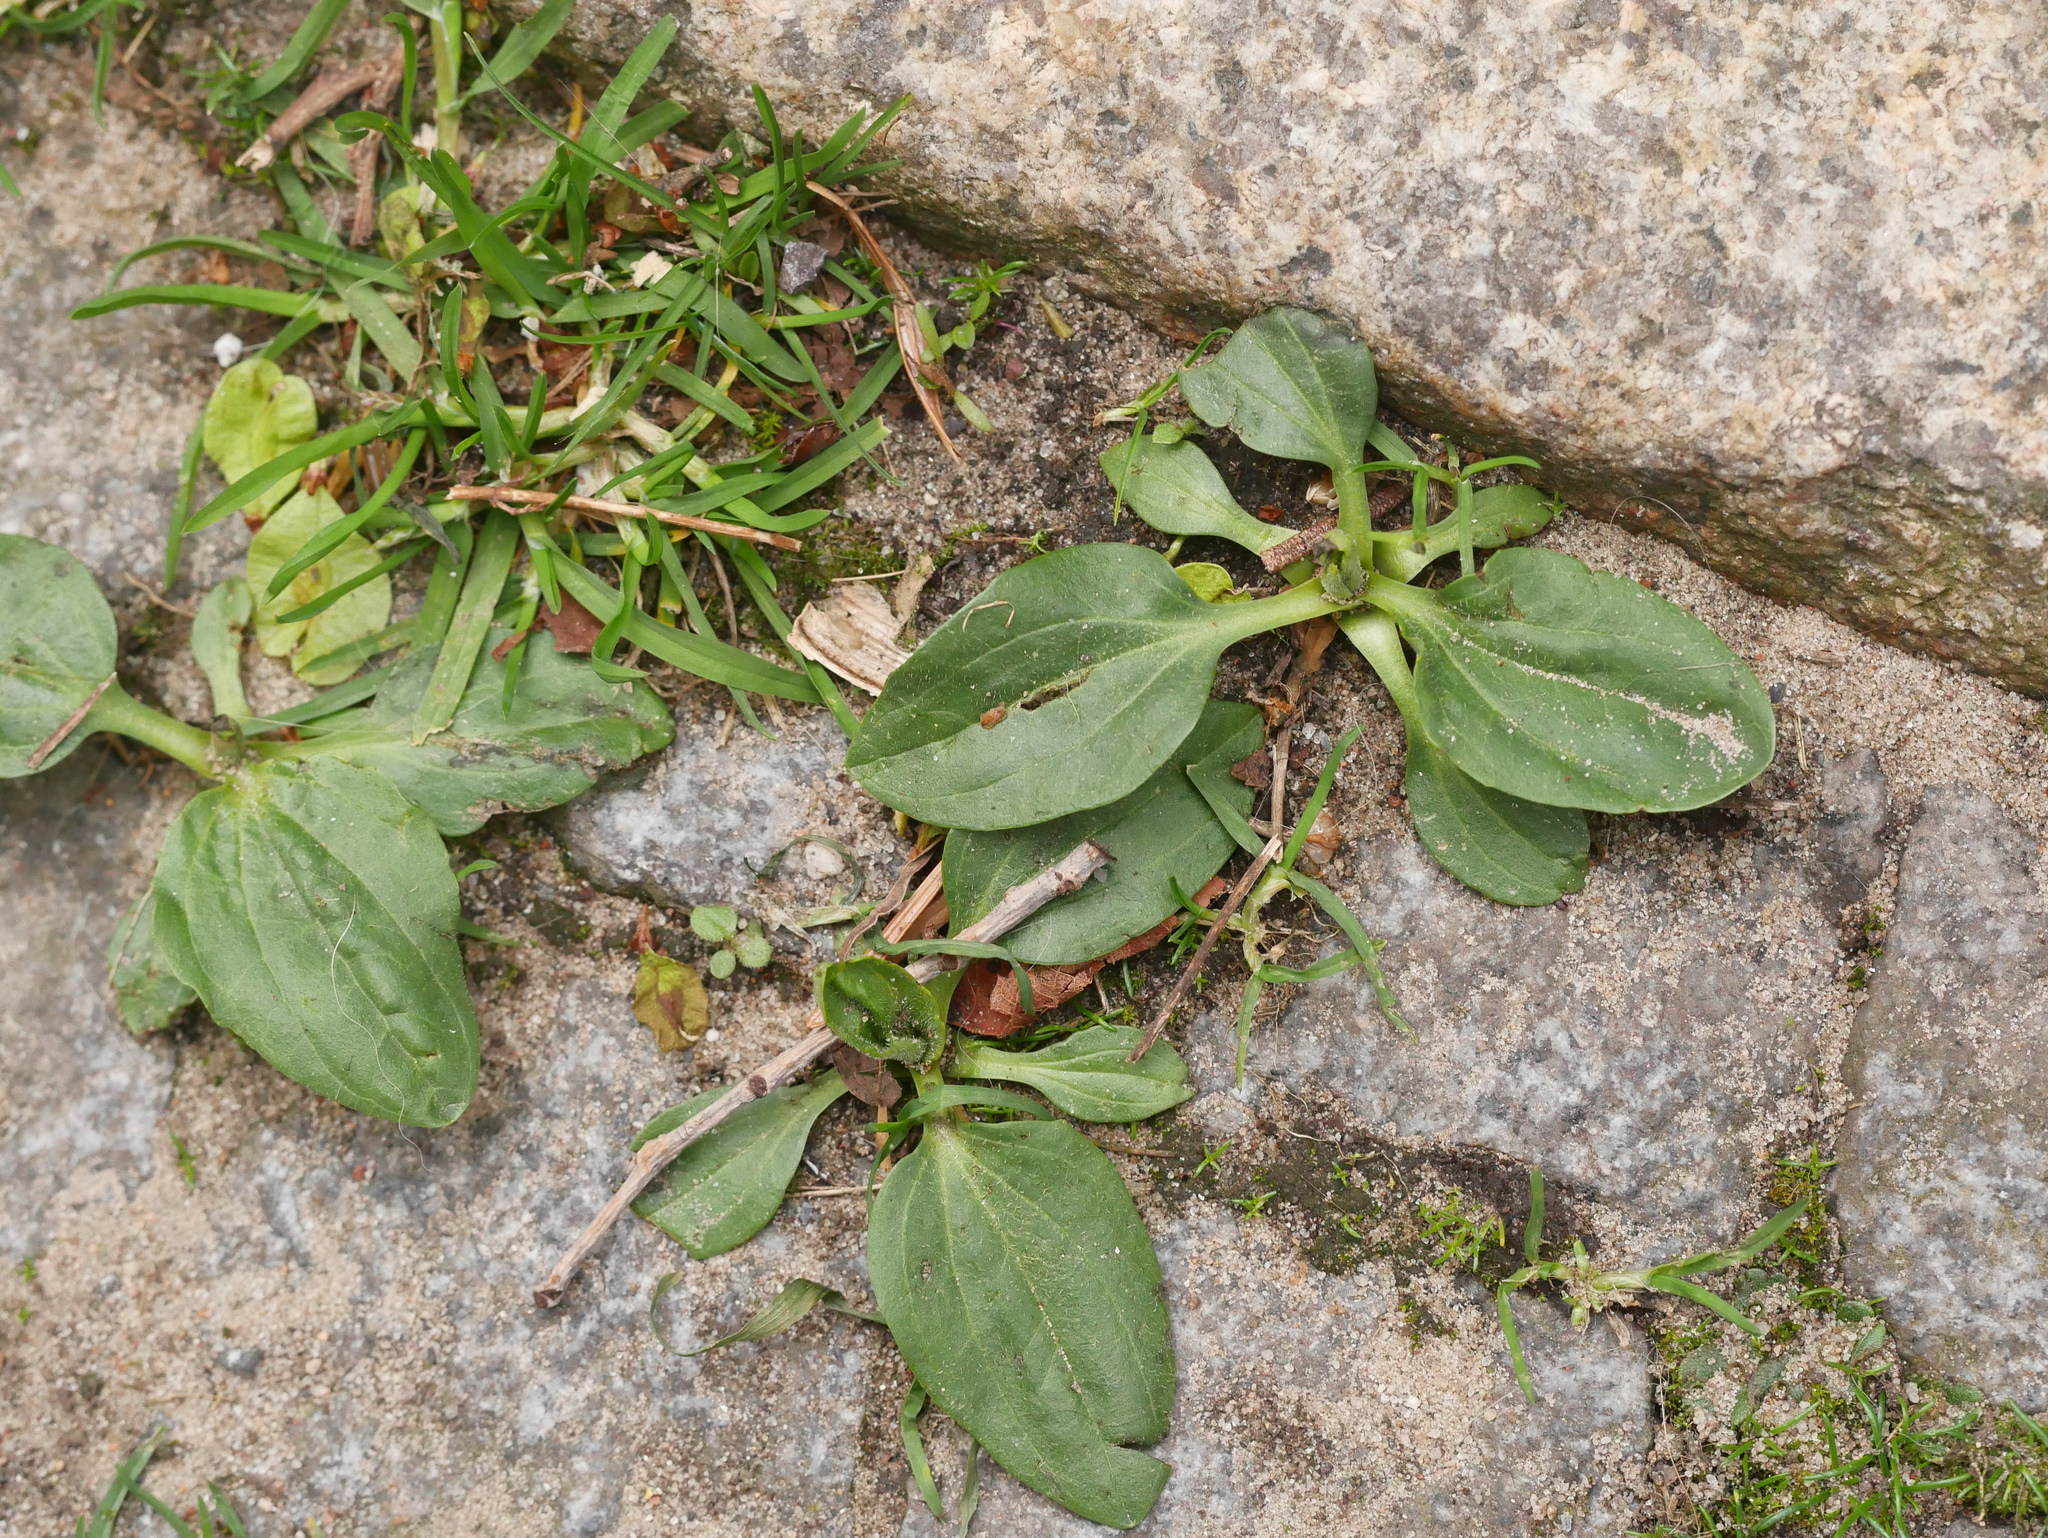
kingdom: Plantae
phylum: Tracheophyta
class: Magnoliopsida
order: Lamiales
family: Plantaginaceae
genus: Plantago
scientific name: Plantago major
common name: Common plantain
